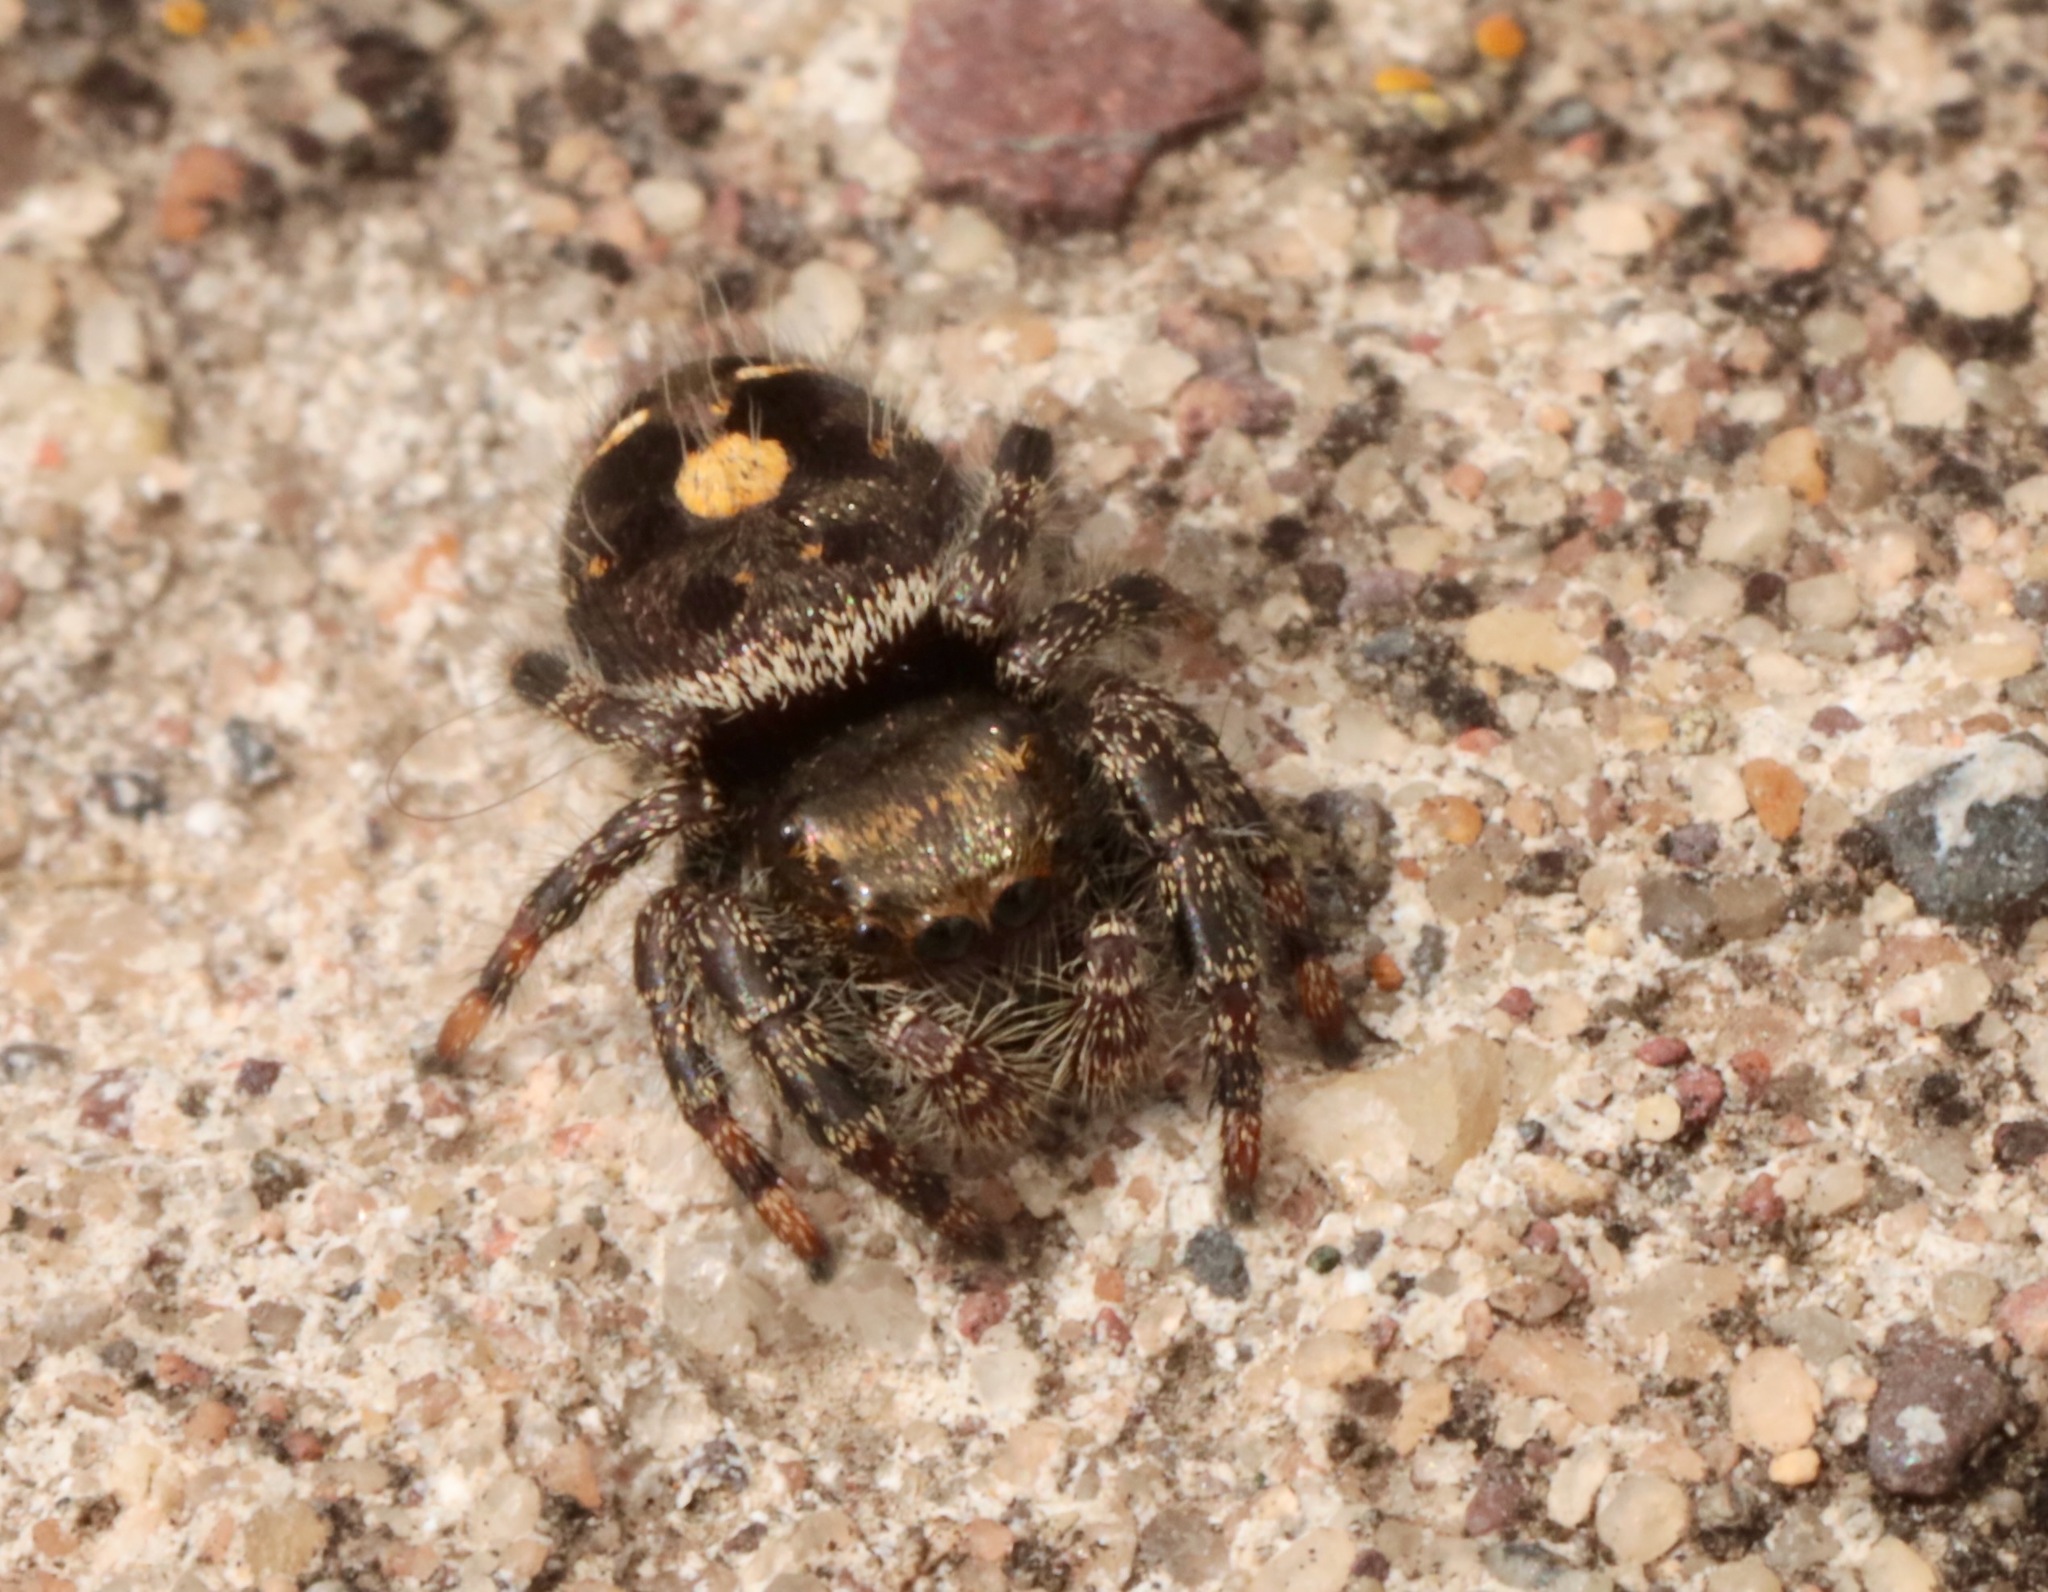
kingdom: Animalia
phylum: Arthropoda
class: Arachnida
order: Araneae
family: Salticidae
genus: Phidippus
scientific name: Phidippus audax
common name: Bold jumper
